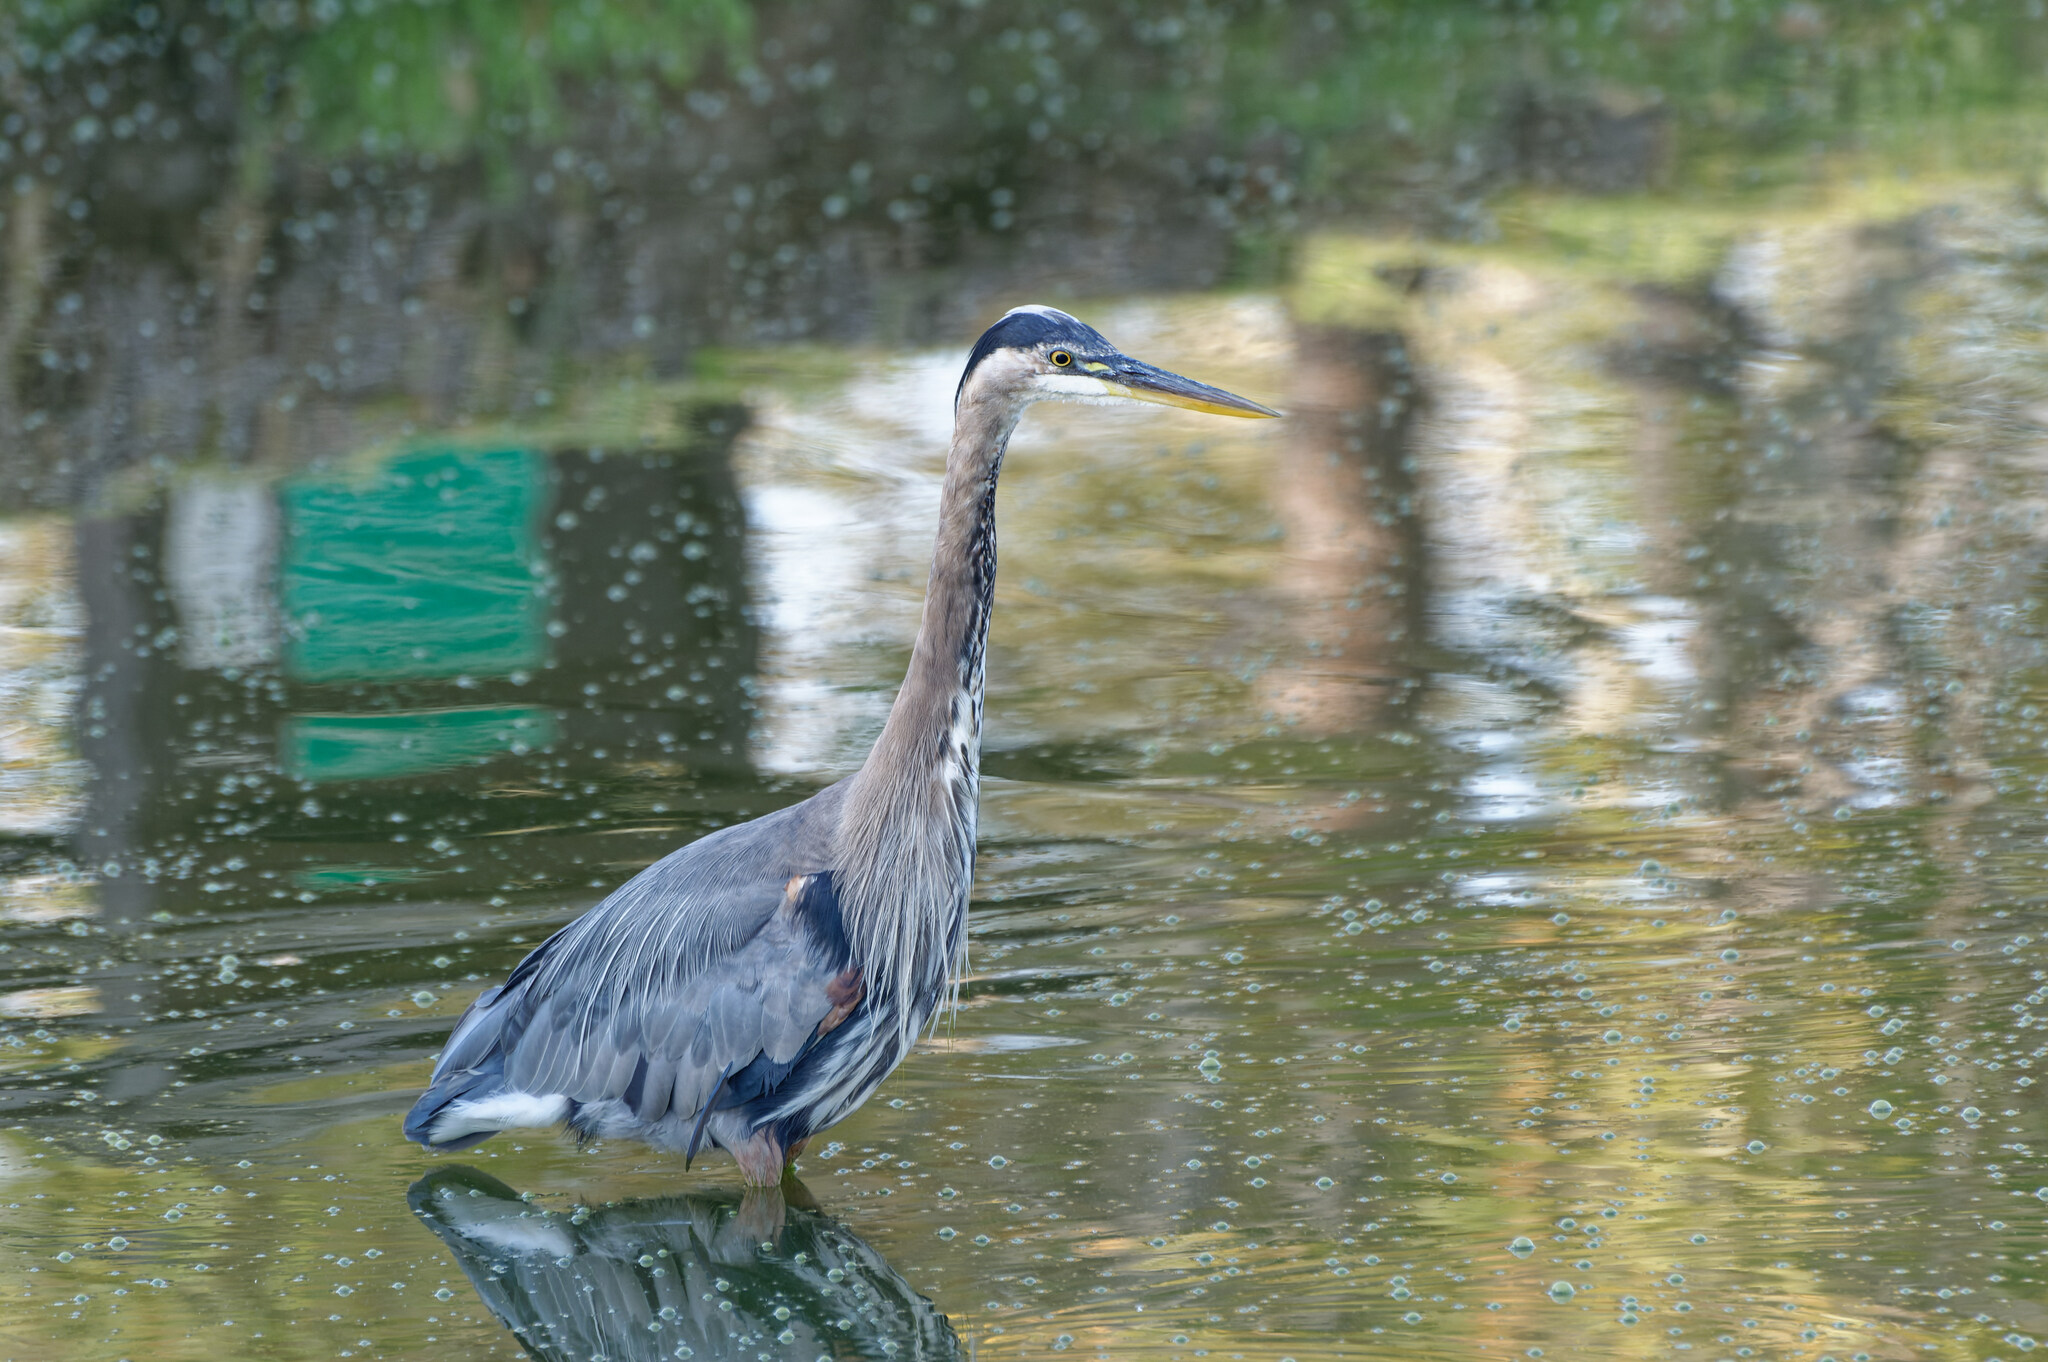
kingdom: Animalia
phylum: Chordata
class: Aves
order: Pelecaniformes
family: Ardeidae
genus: Ardea
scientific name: Ardea herodias
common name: Great blue heron
